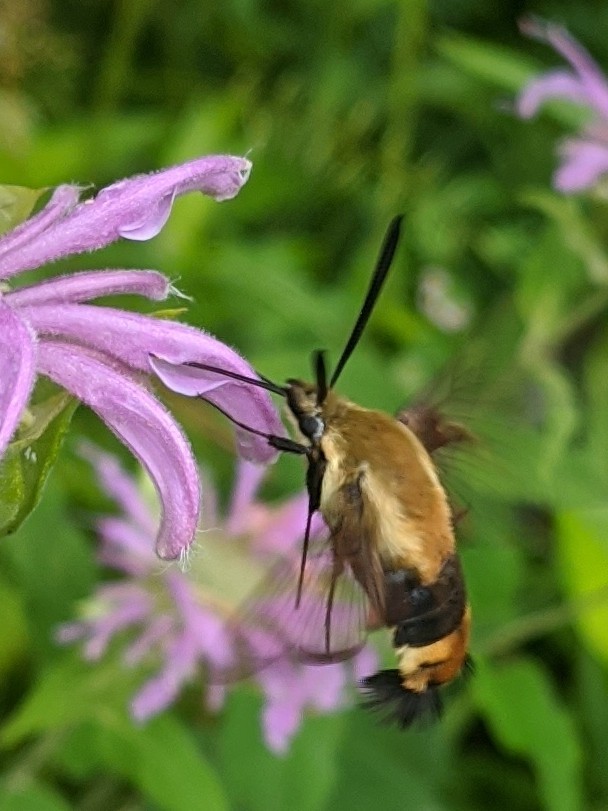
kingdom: Animalia
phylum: Arthropoda
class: Insecta
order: Lepidoptera
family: Sphingidae
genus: Hemaris
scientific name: Hemaris diffinis
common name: Bumblebee moth
